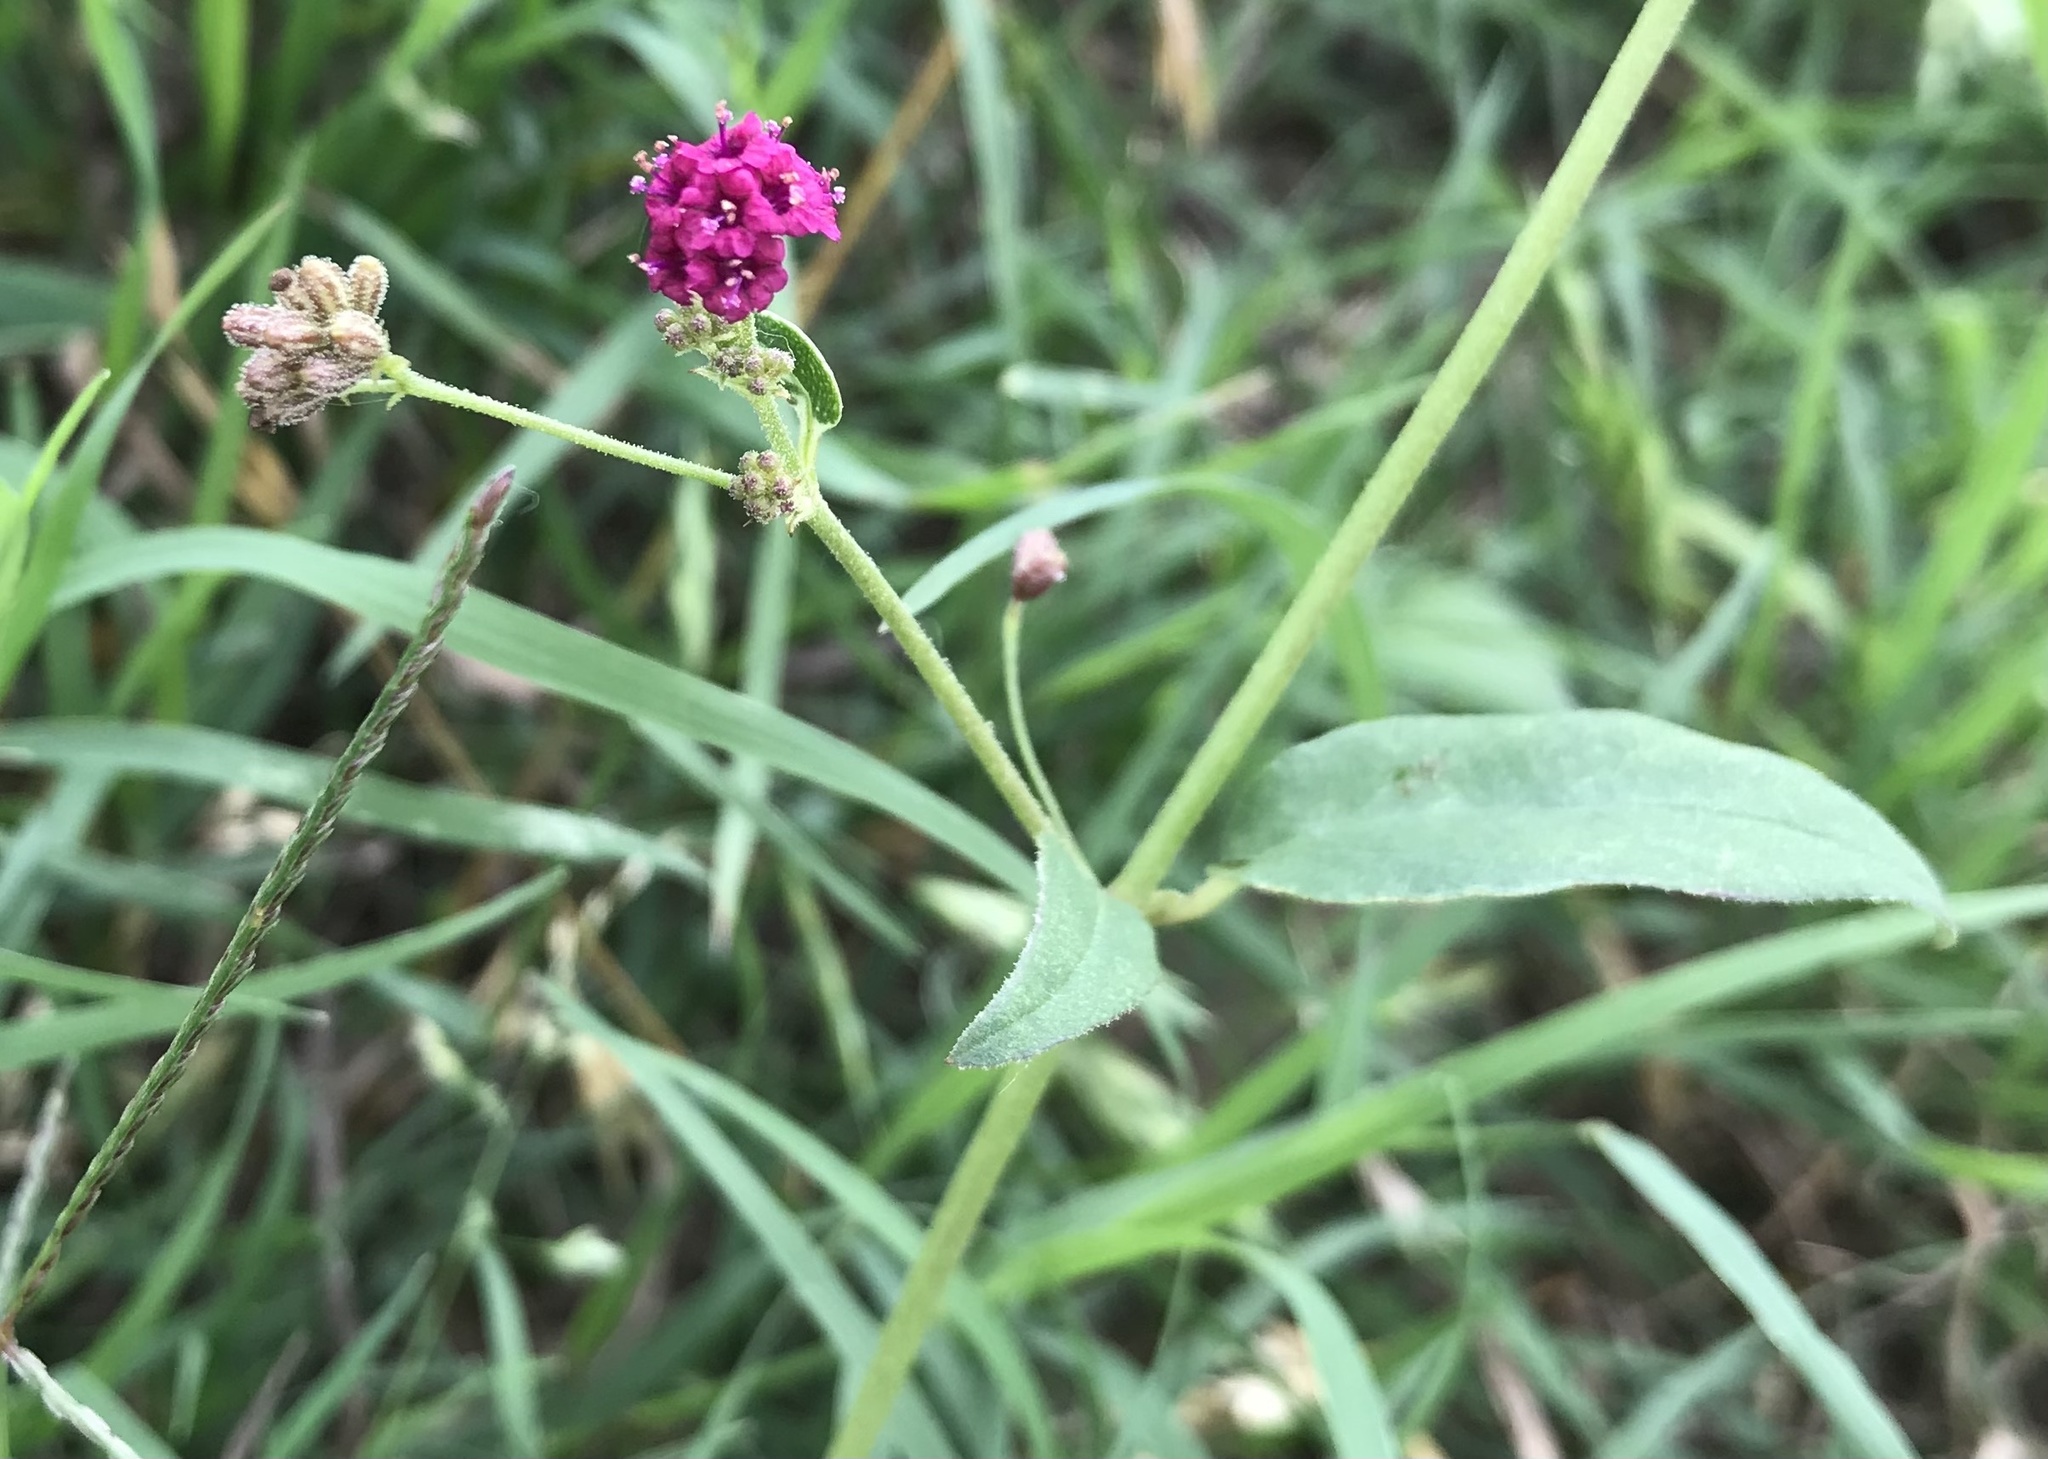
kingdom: Plantae
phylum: Tracheophyta
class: Magnoliopsida
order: Caryophyllales
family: Nyctaginaceae
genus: Boerhavia
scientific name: Boerhavia coccinea
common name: Scarlet spiderling
